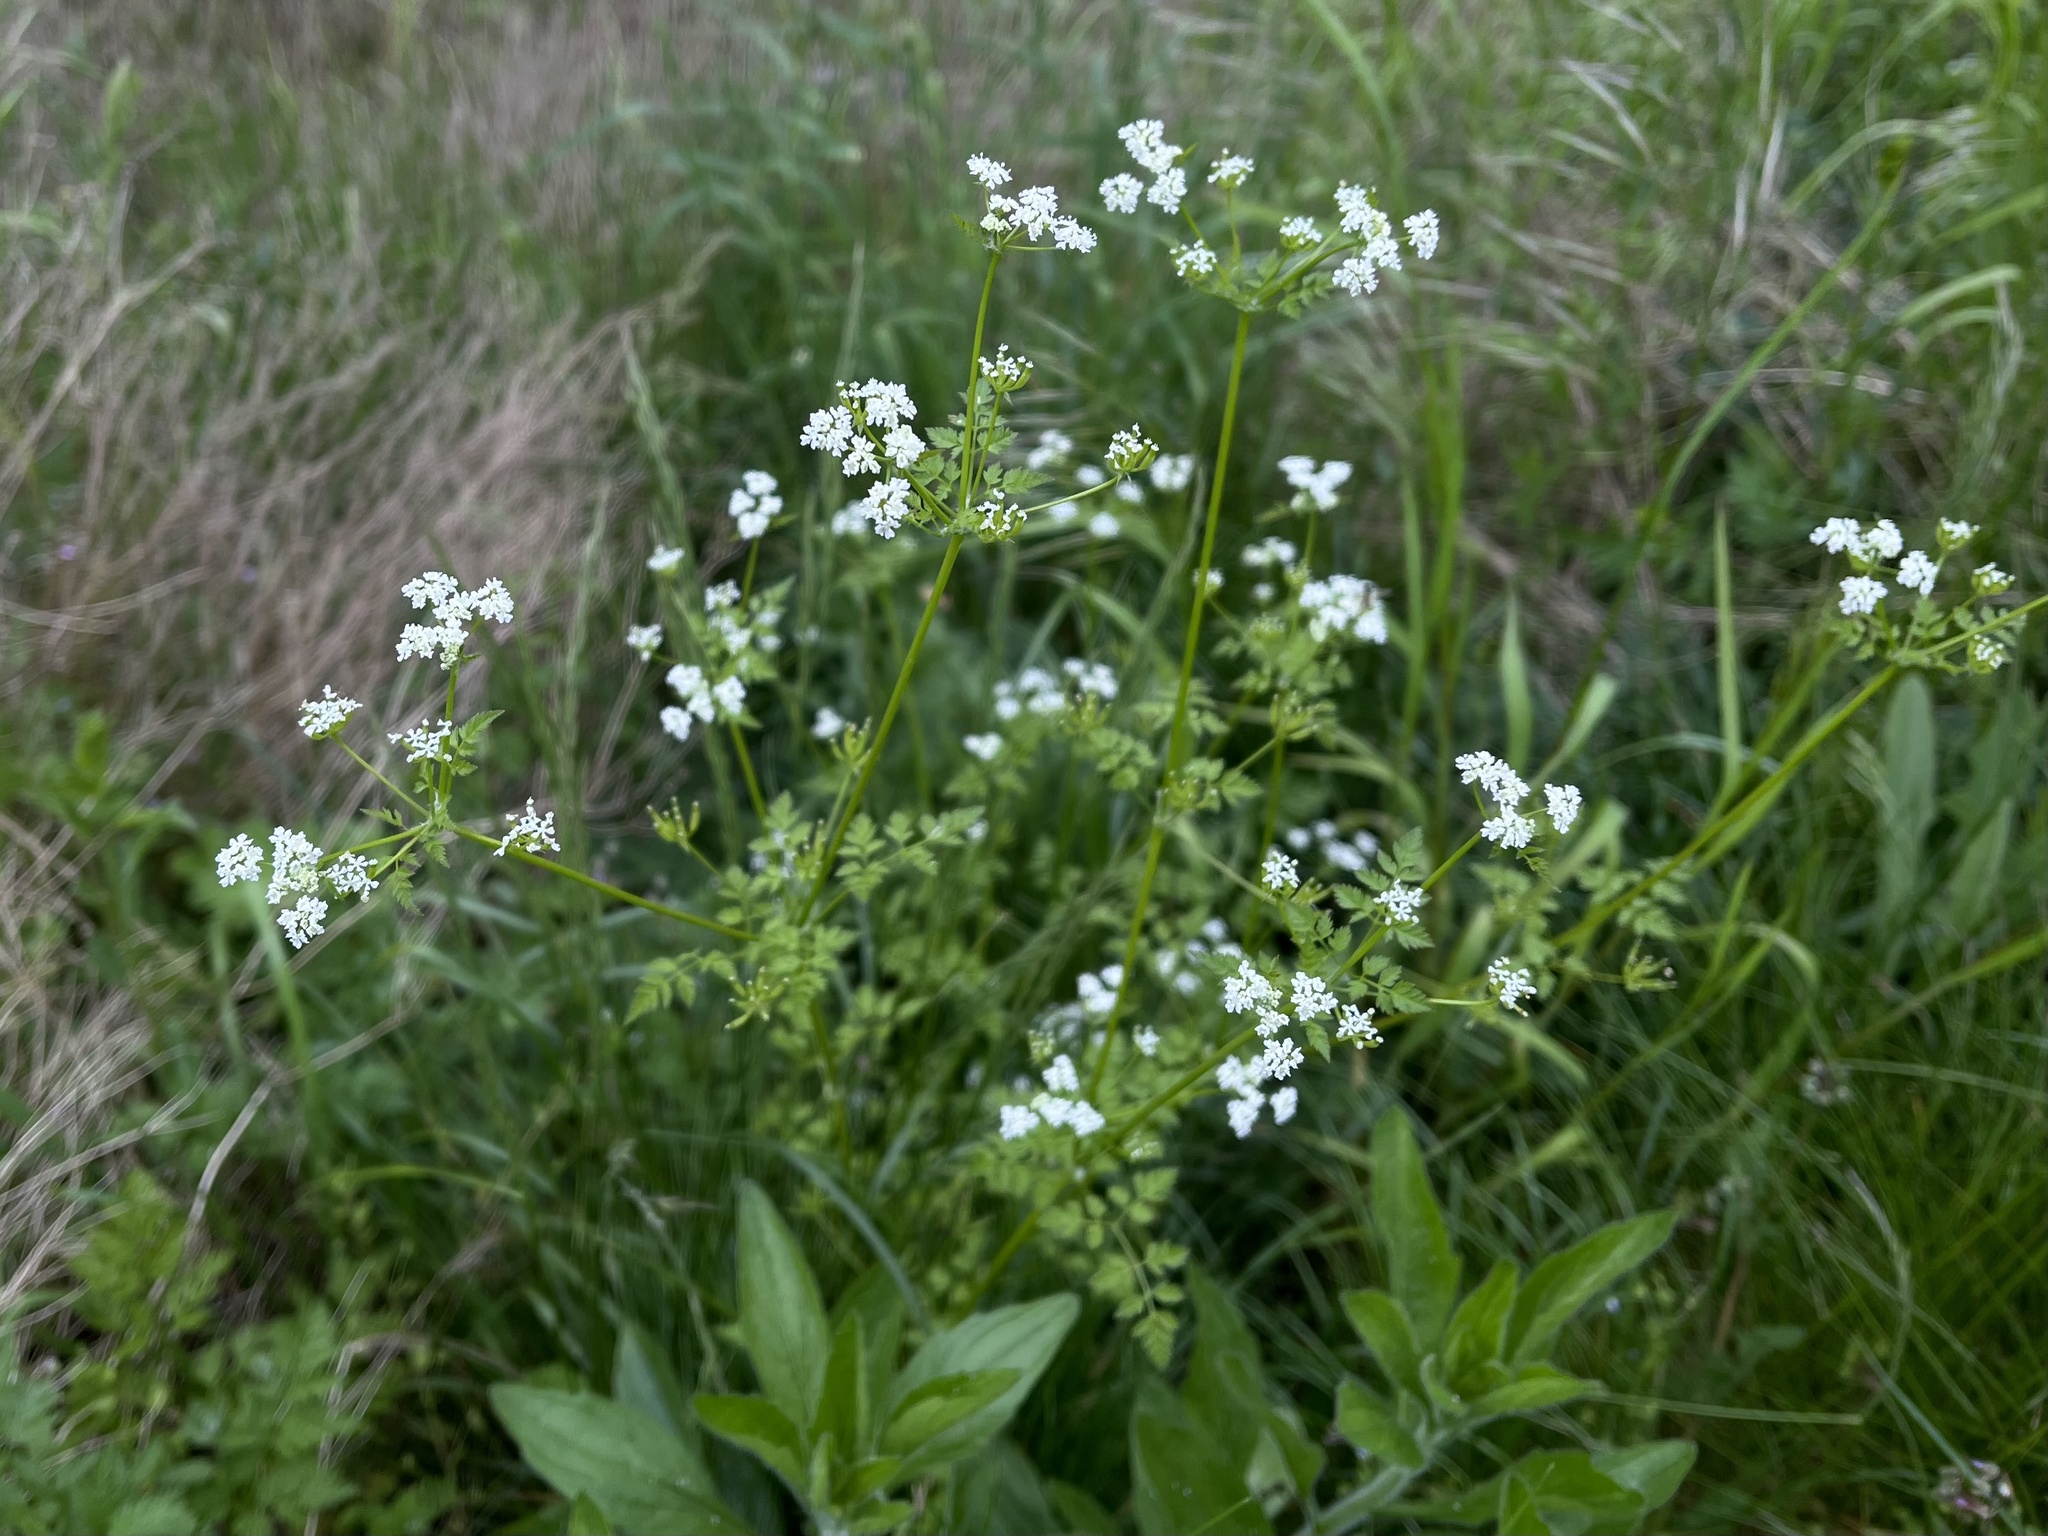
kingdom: Plantae
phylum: Tracheophyta
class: Magnoliopsida
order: Apiales
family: Apiaceae
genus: Anthriscus
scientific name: Anthriscus cerefolium
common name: Garden chervil
